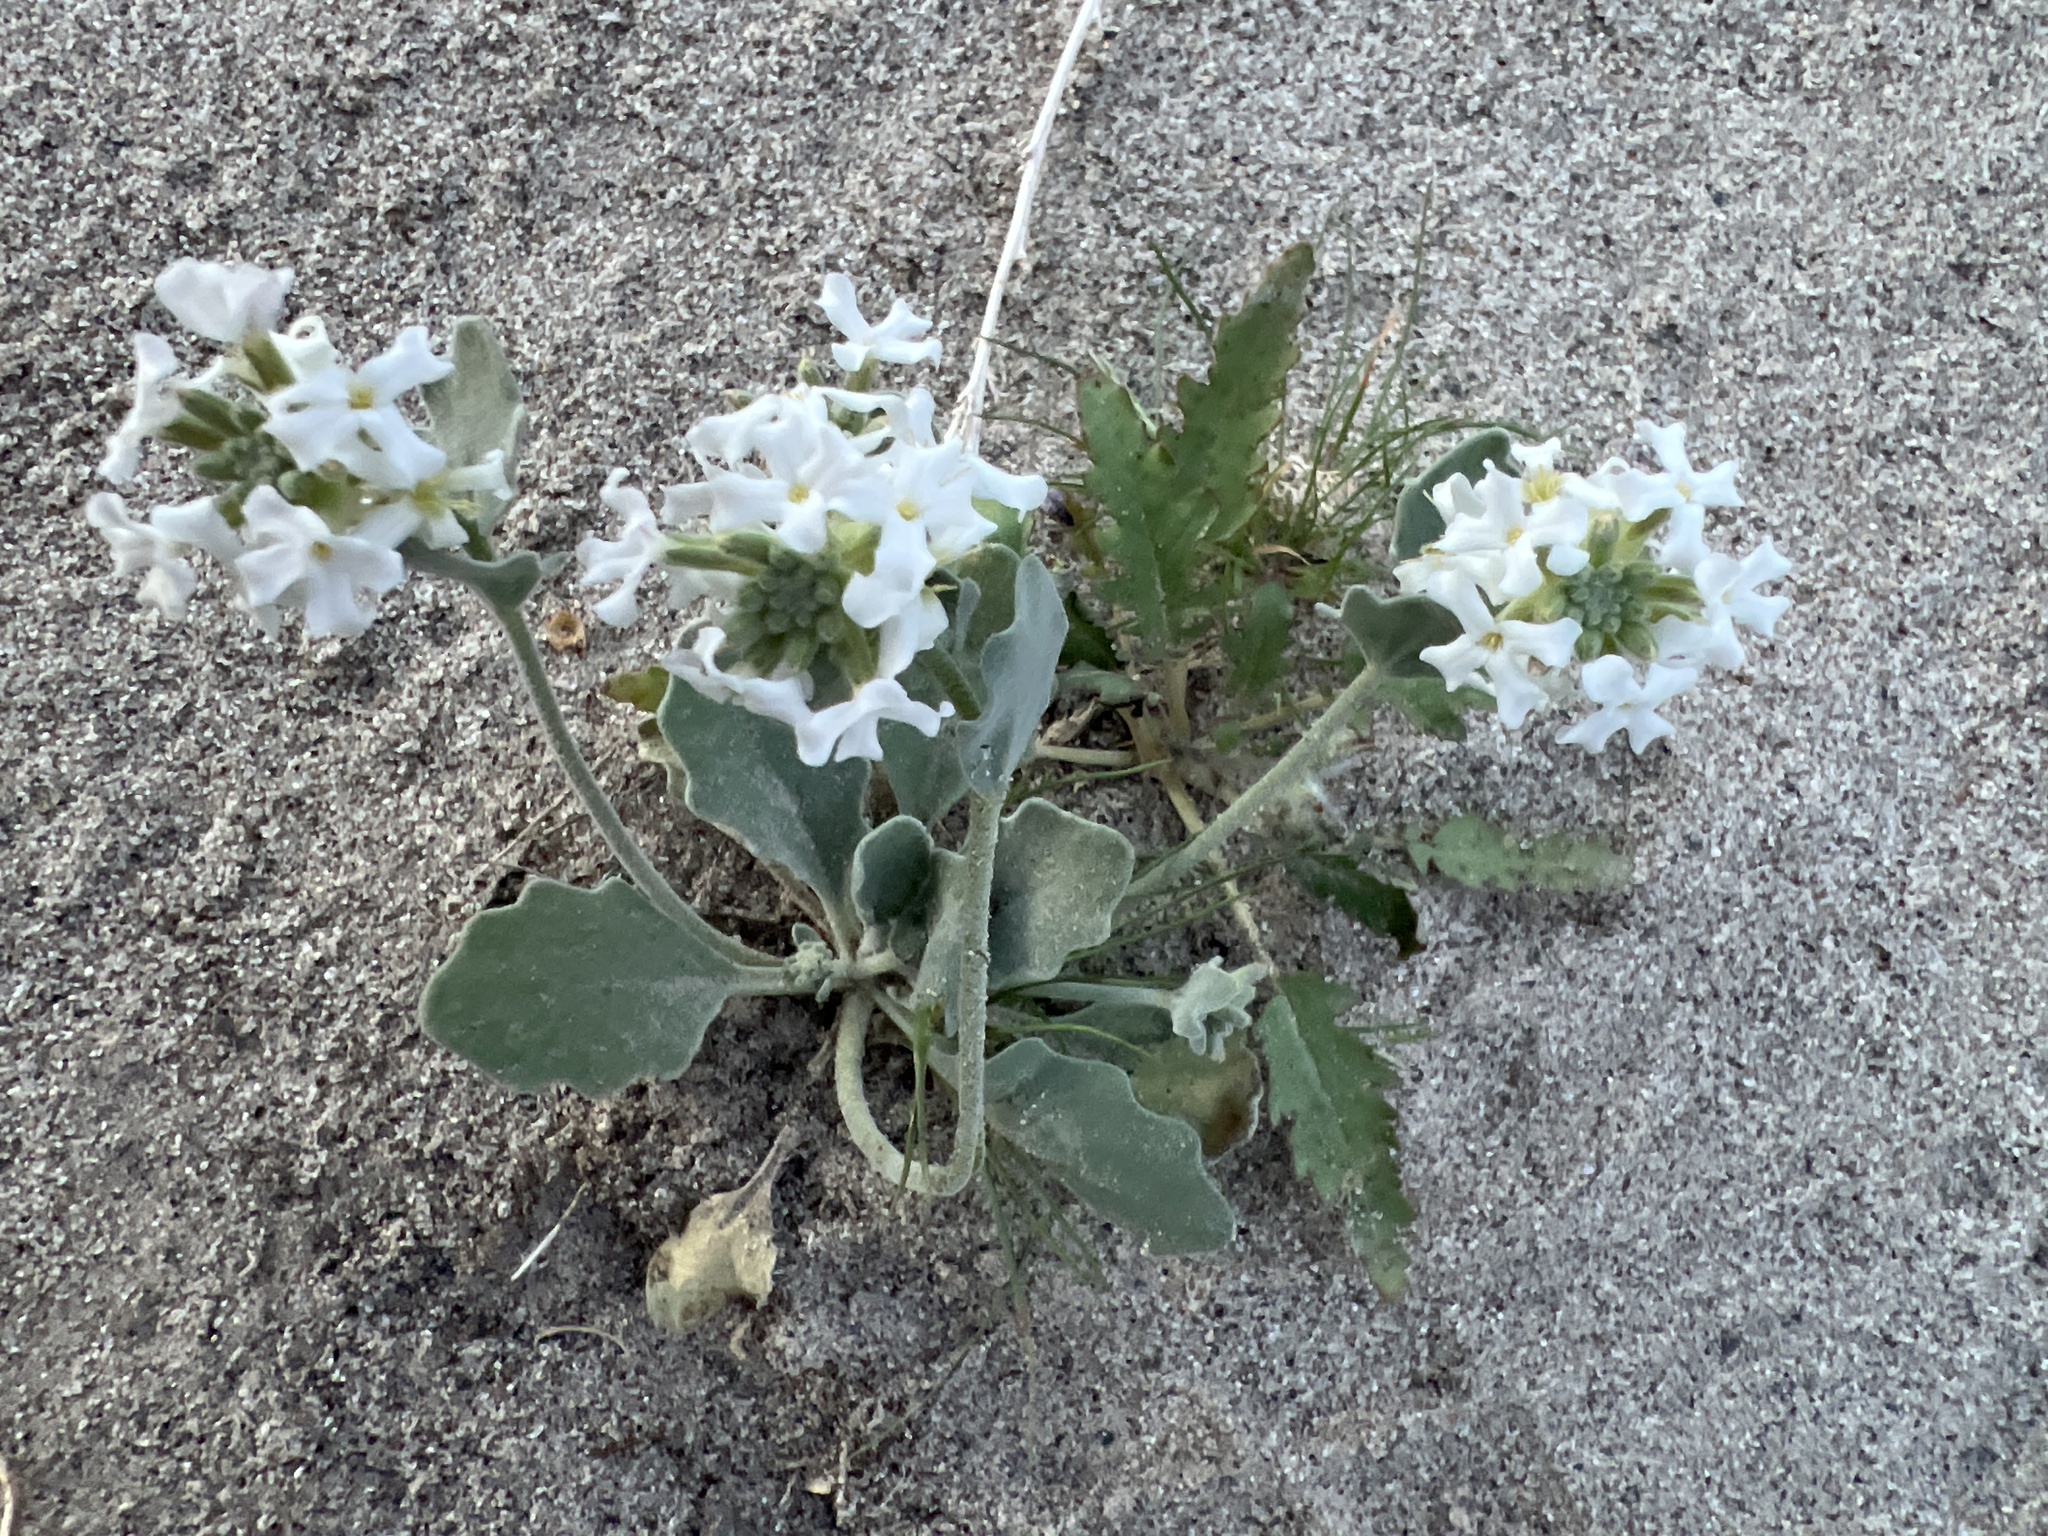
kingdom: Plantae
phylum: Tracheophyta
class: Magnoliopsida
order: Brassicales
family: Brassicaceae
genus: Dithyrea
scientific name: Dithyrea californica
